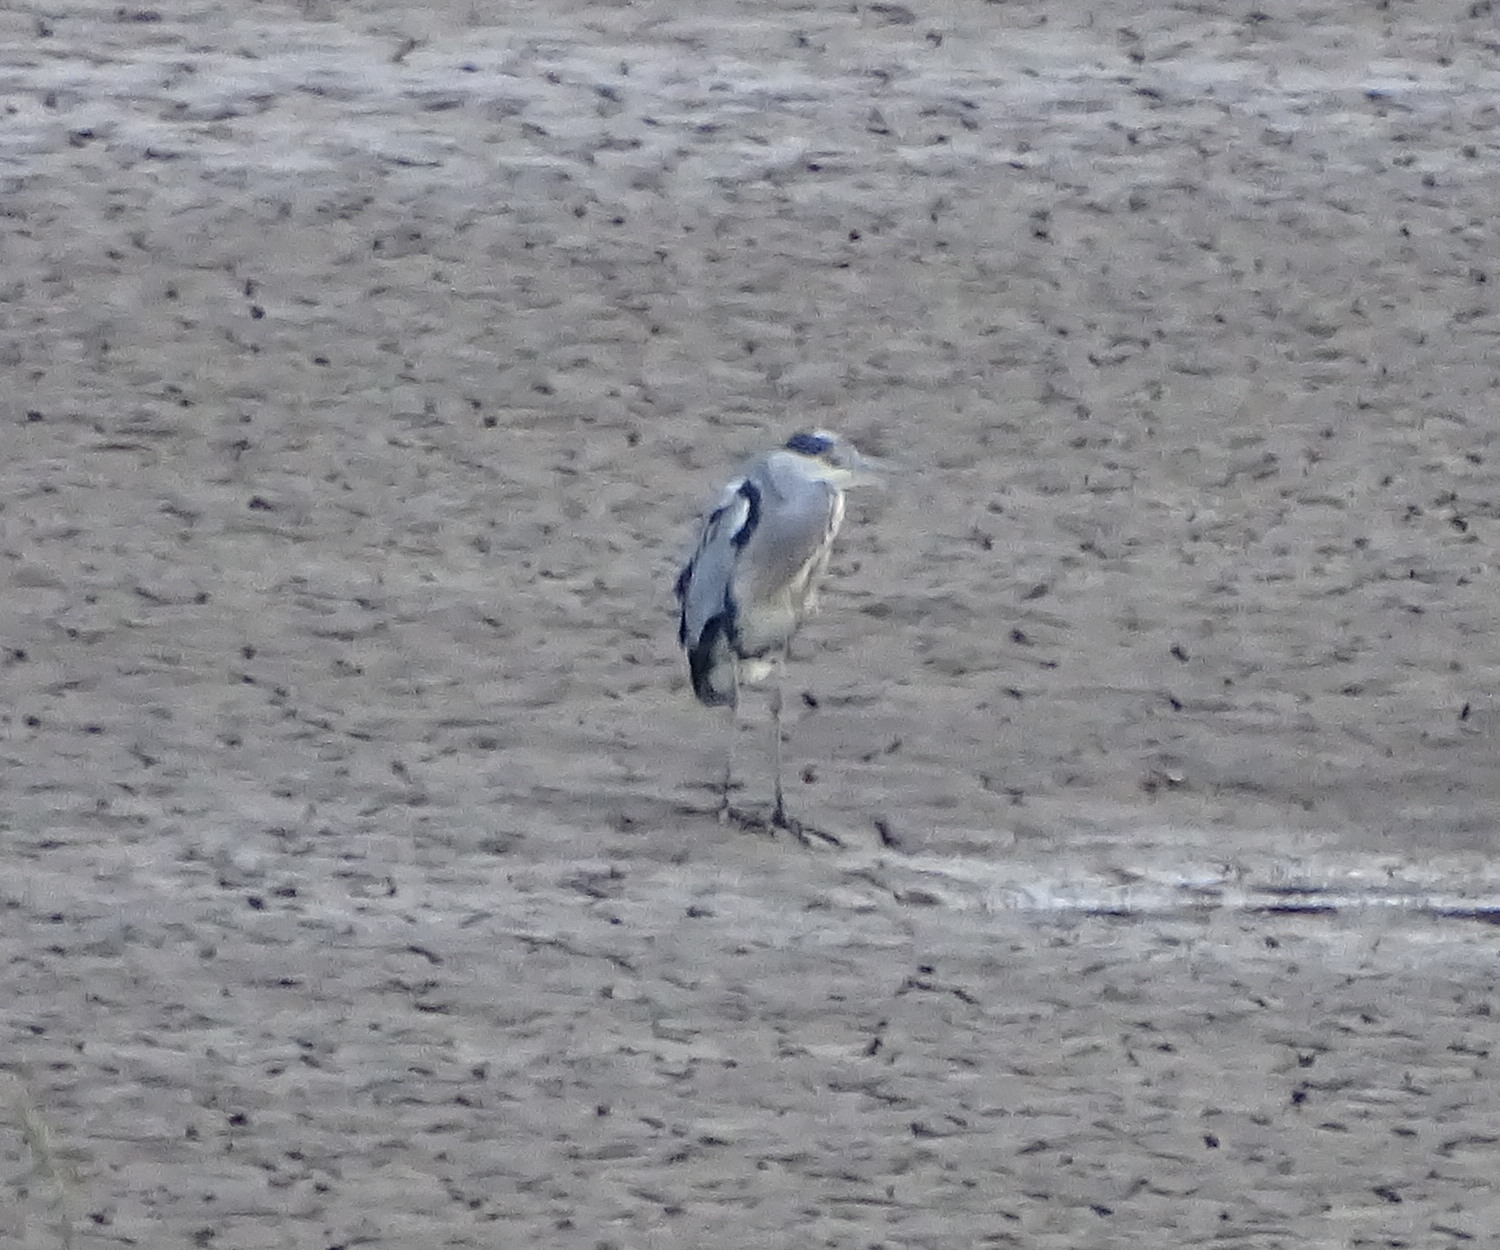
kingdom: Animalia
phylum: Chordata
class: Aves
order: Pelecaniformes
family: Ardeidae
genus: Ardea
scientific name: Ardea cinerea
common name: Grey heron
